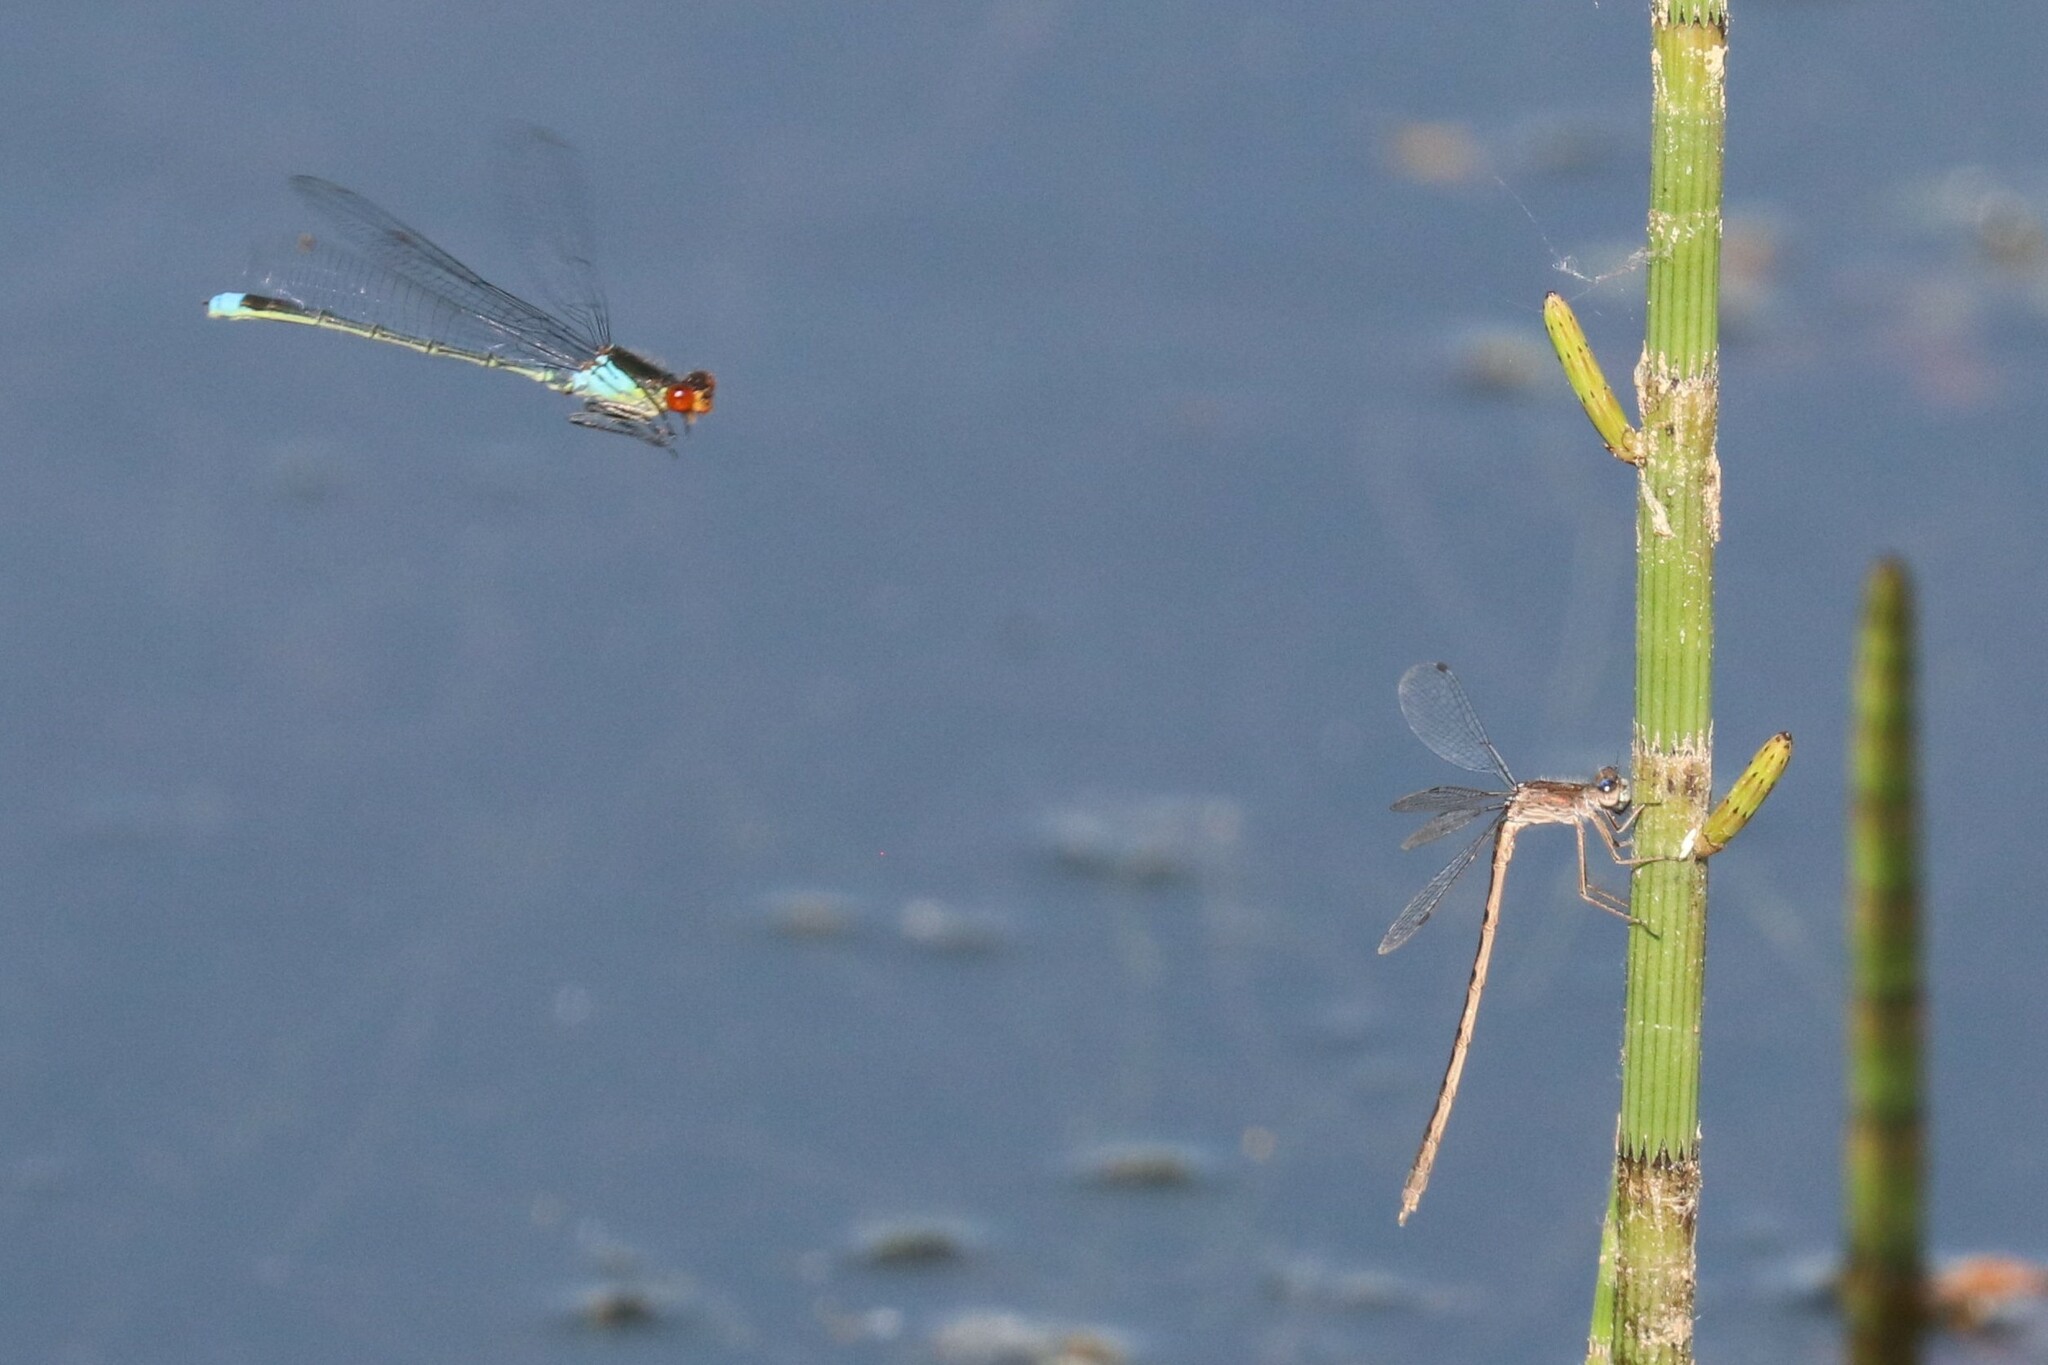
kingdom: Animalia
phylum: Arthropoda
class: Insecta
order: Odonata
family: Coenagrionidae
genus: Erythromma
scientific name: Erythromma najas
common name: Red-eyed damselfly
